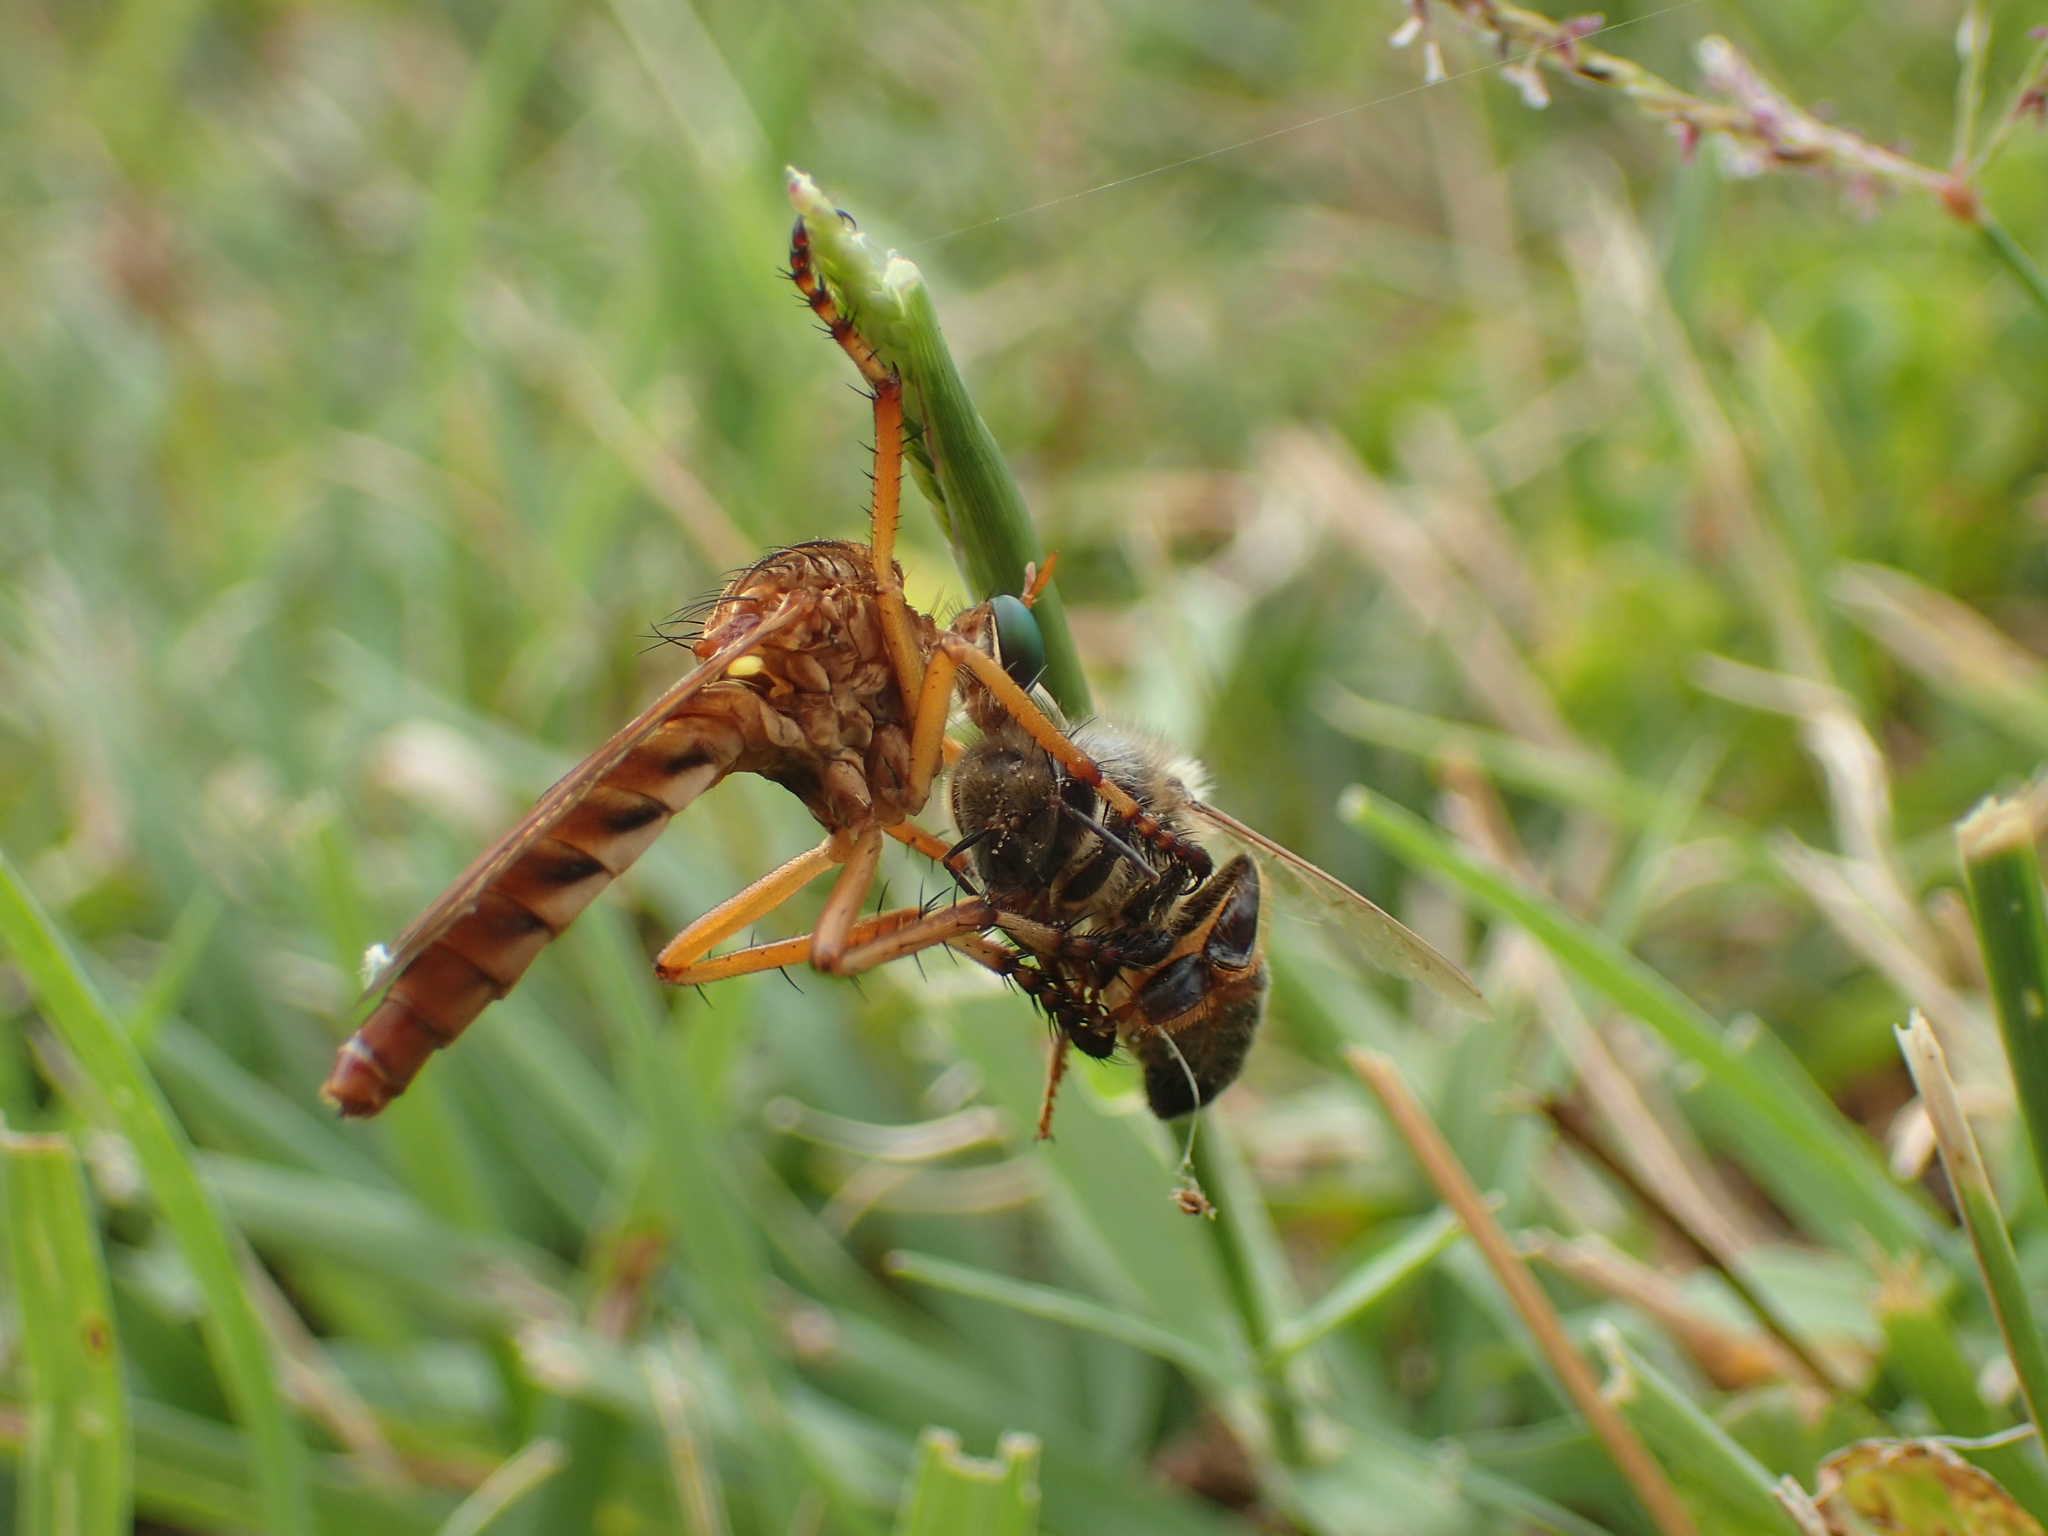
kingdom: Animalia
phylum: Arthropoda
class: Insecta
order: Hymenoptera
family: Apidae
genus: Apis
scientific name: Apis mellifera
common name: Honey bee
